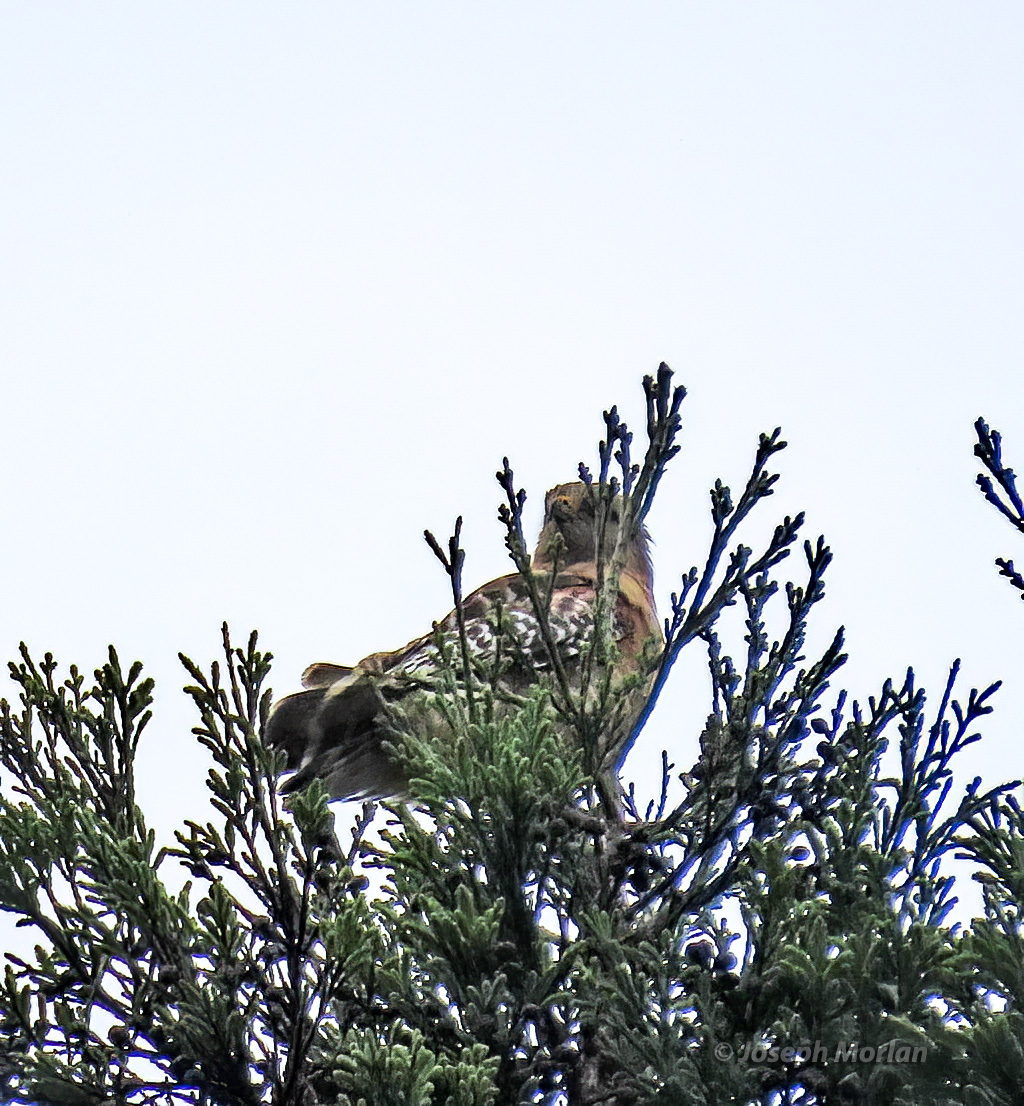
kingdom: Animalia
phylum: Chordata
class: Aves
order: Accipitriformes
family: Accipitridae
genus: Buteo
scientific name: Buteo lineatus
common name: Red-shouldered hawk
